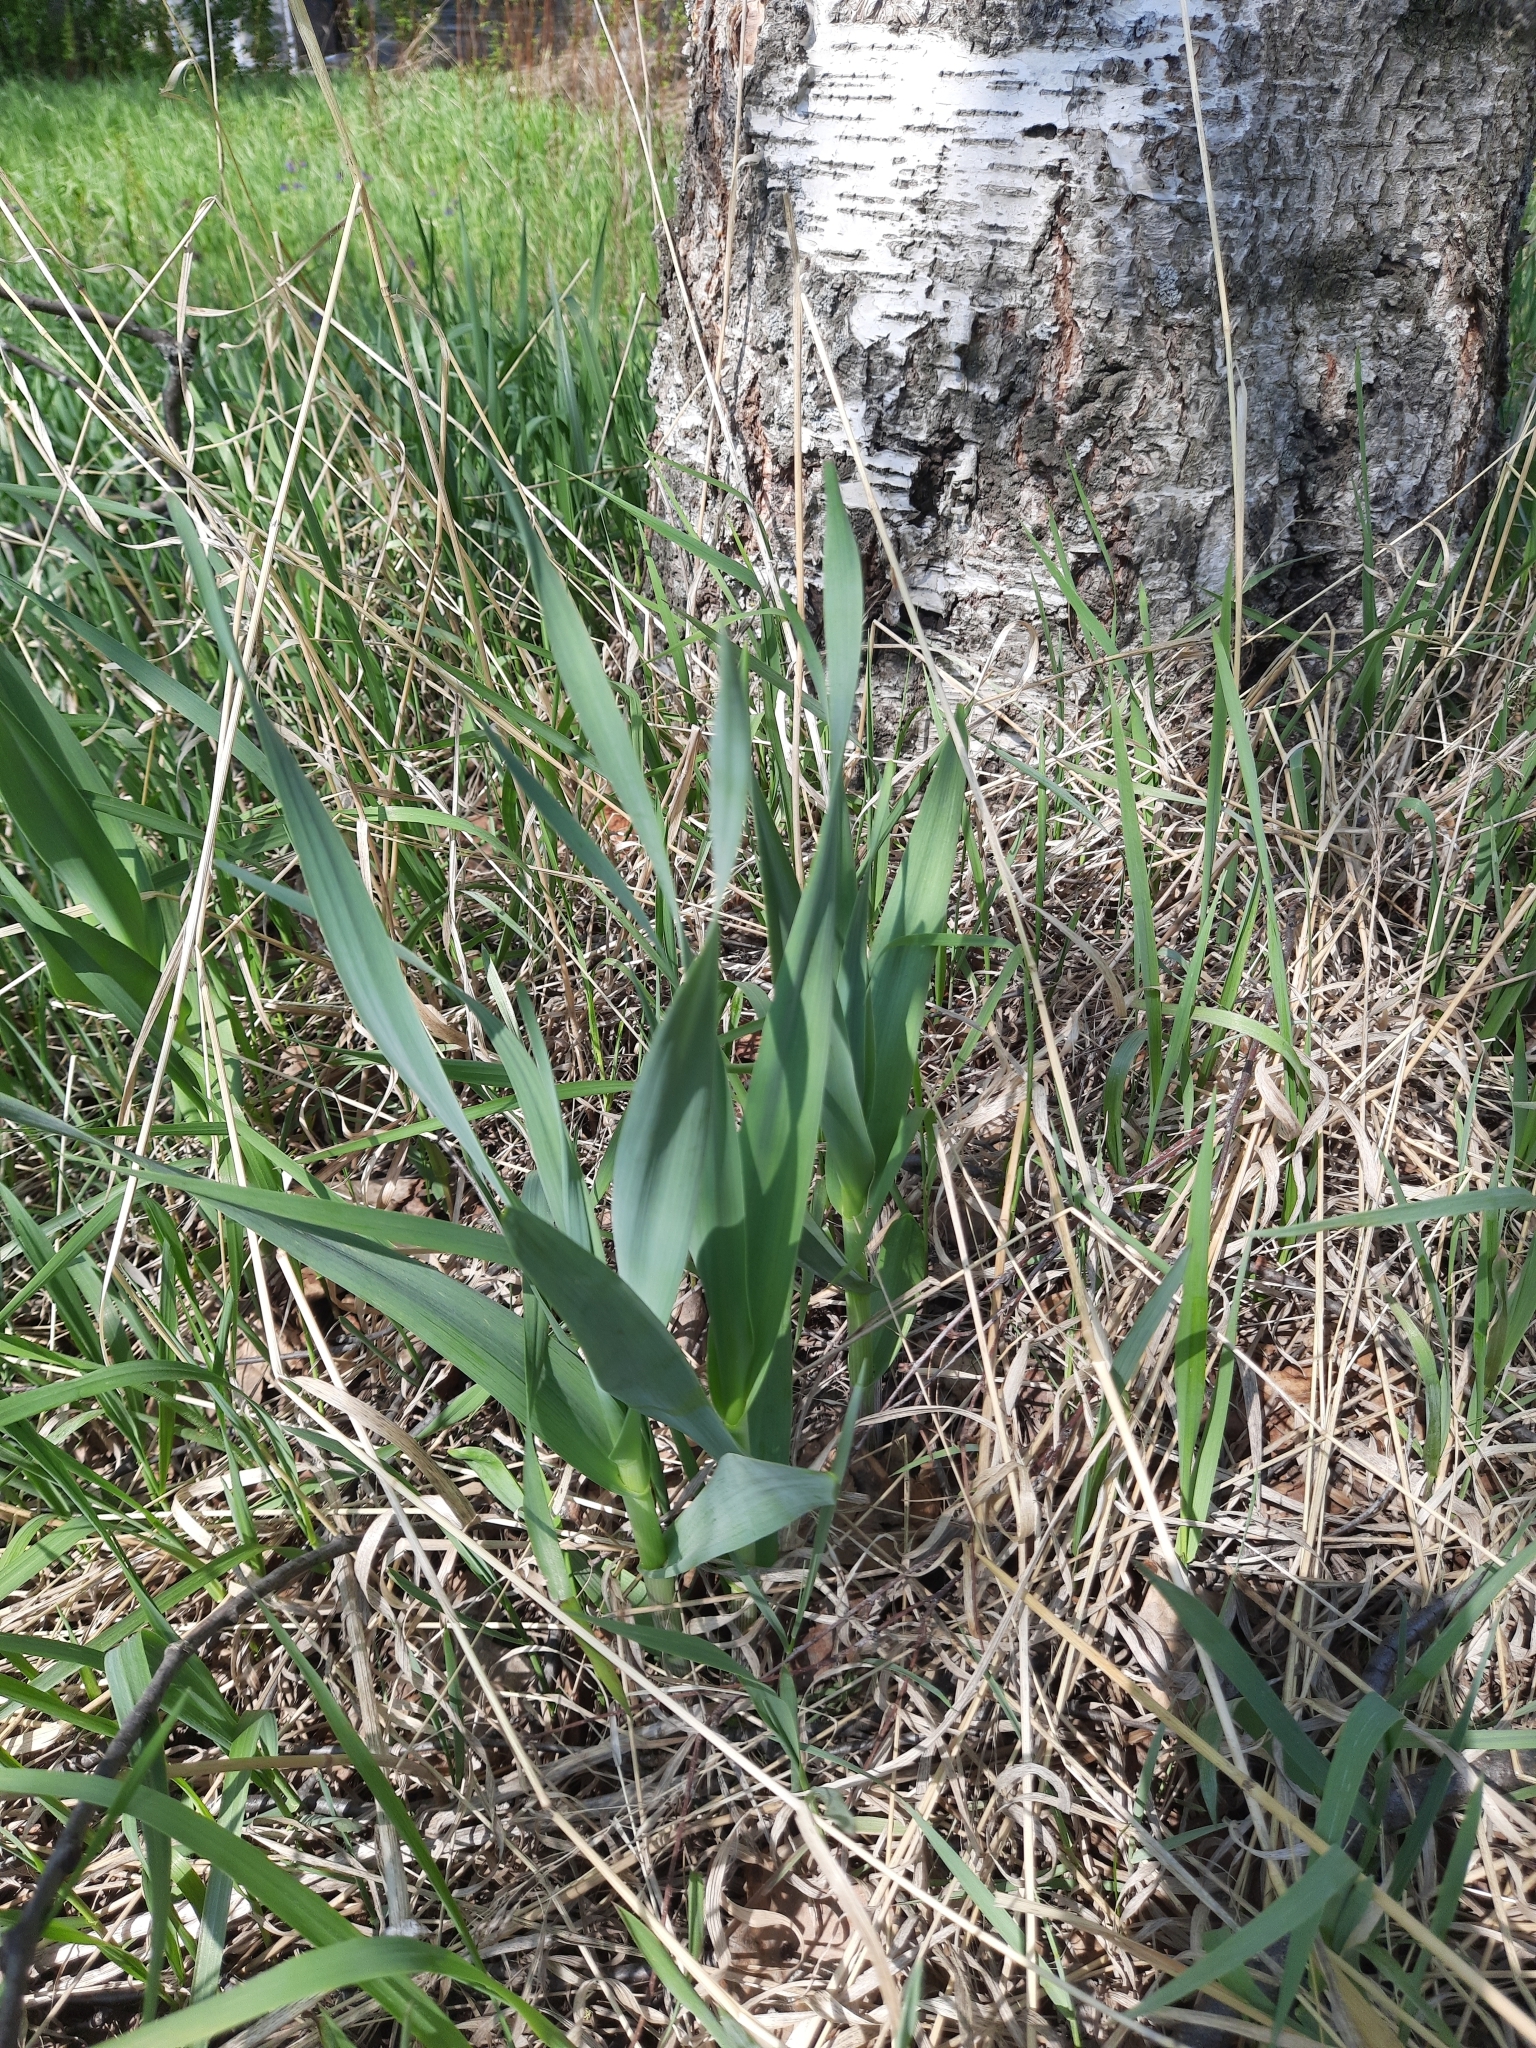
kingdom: Plantae
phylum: Tracheophyta
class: Liliopsida
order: Asparagales
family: Amaryllidaceae
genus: Allium
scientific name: Allium obliquum
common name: Oblique onion
